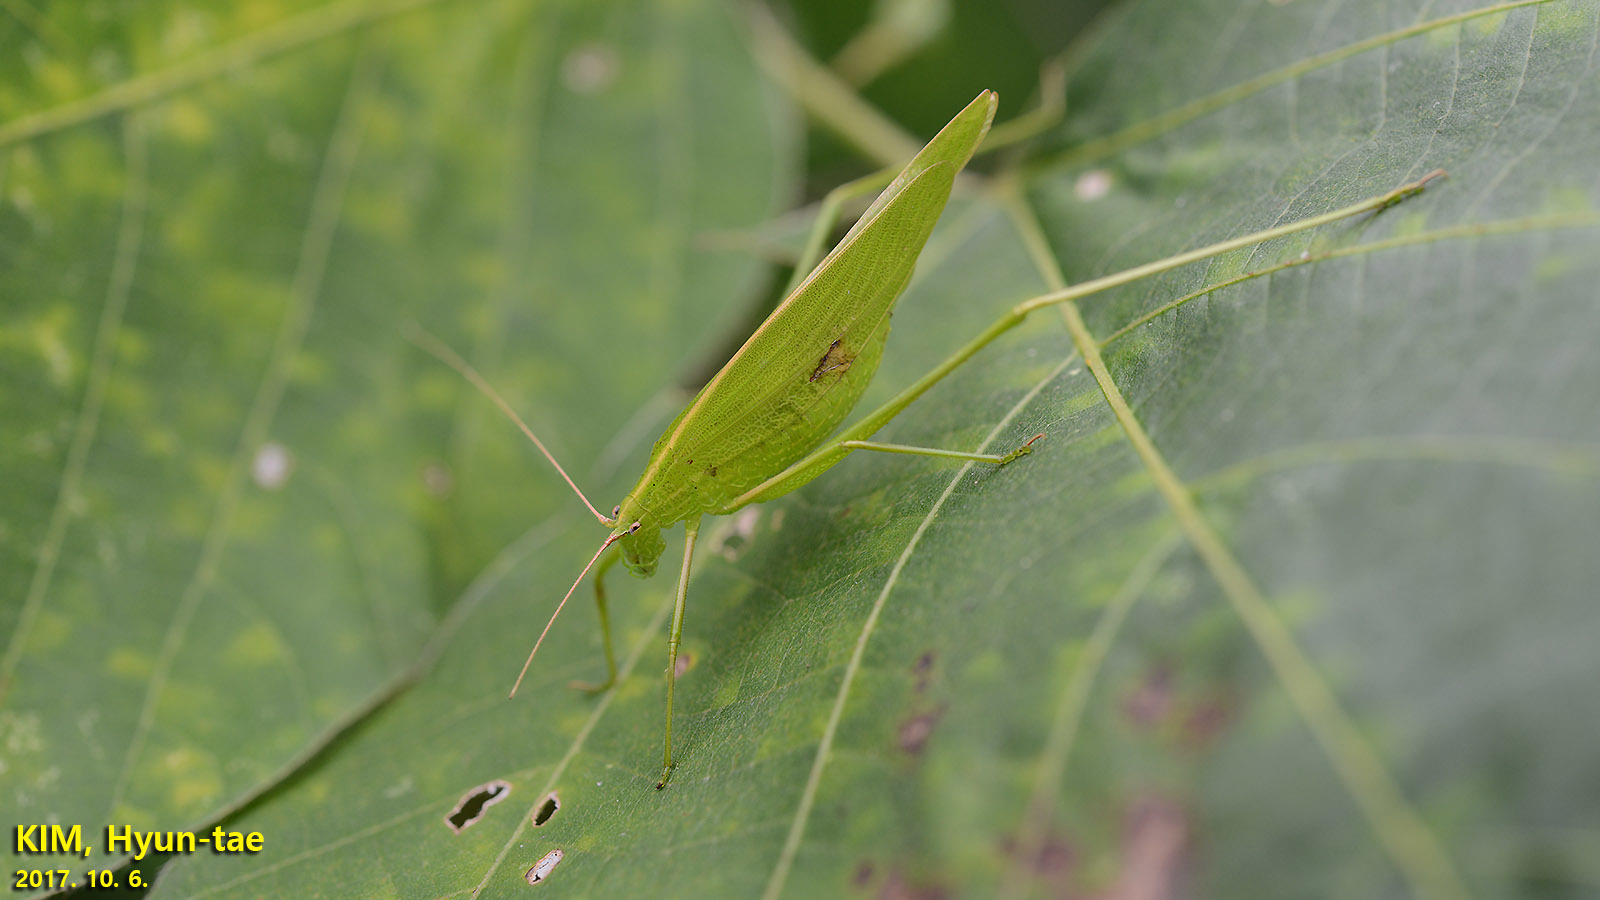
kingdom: Animalia
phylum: Arthropoda
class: Insecta
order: Orthoptera
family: Tettigoniidae
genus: Ducetia
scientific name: Ducetia japonica
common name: Pacific ducetia
